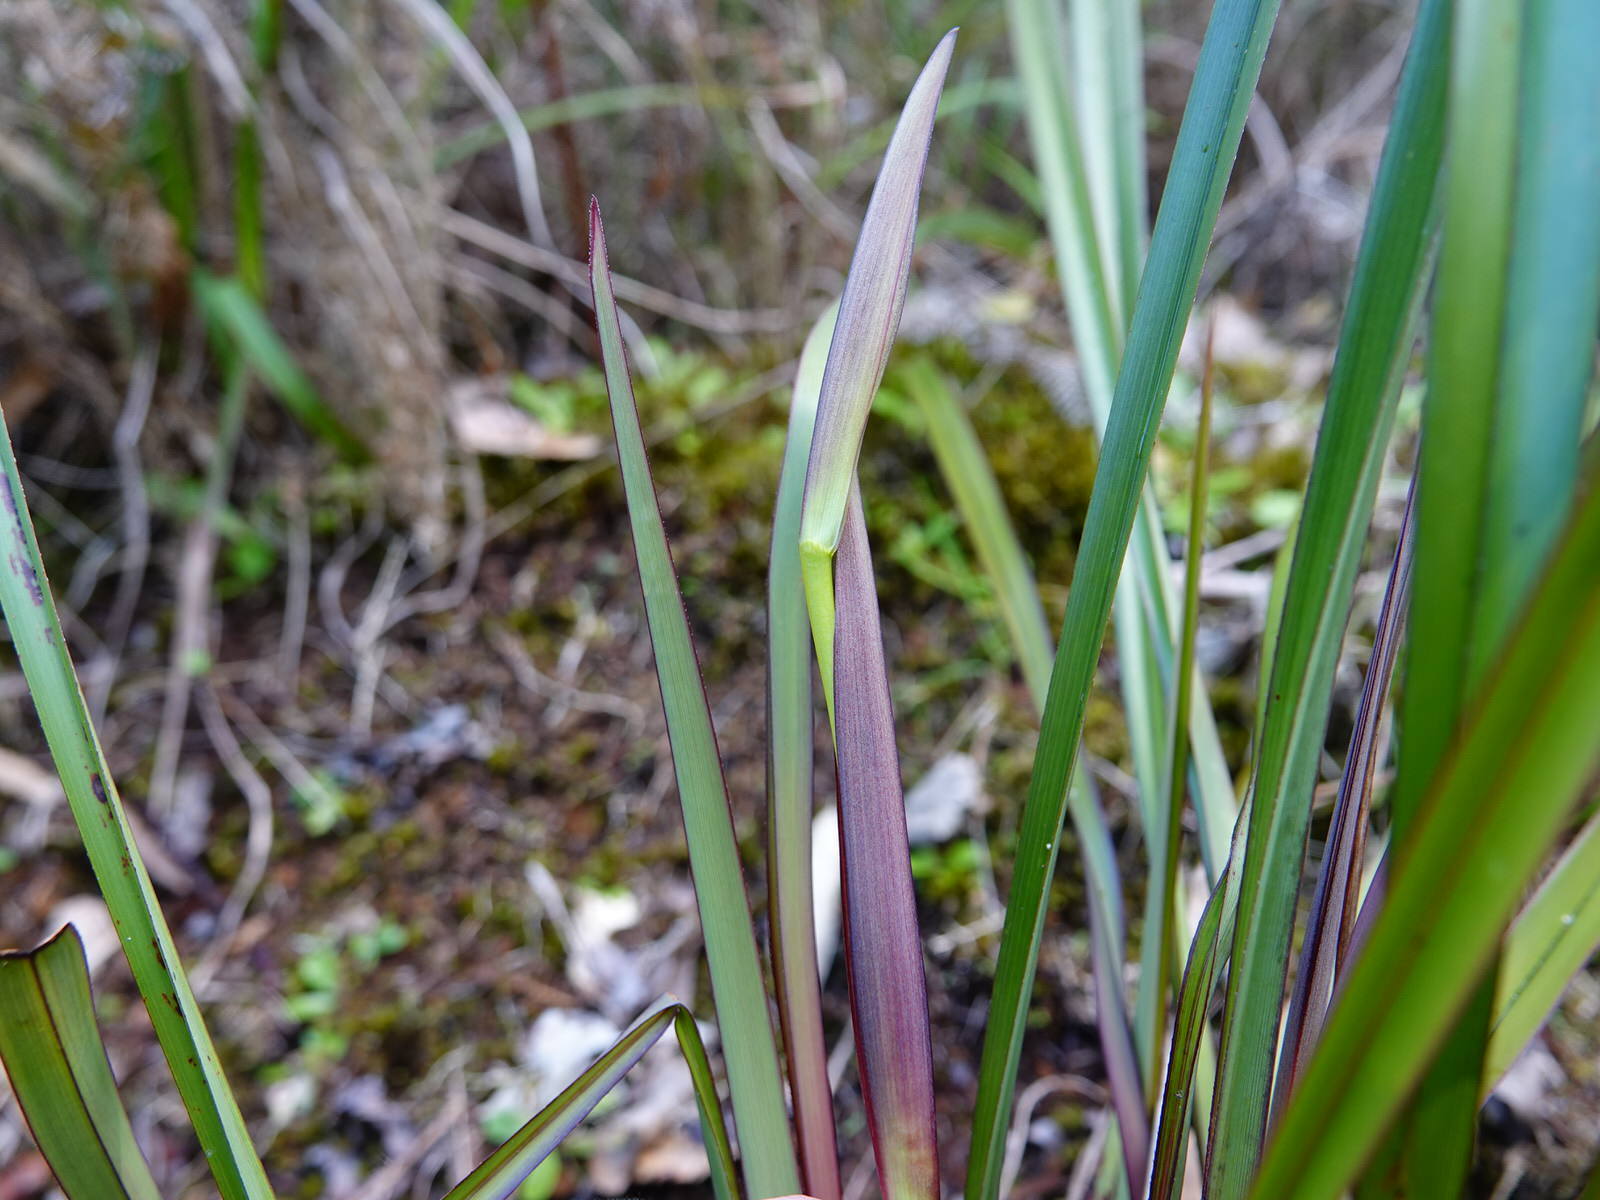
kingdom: Plantae
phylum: Tracheophyta
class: Liliopsida
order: Asparagales
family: Asphodelaceae
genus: Dianella
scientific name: Dianella nigra
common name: New zealand-blueberry
